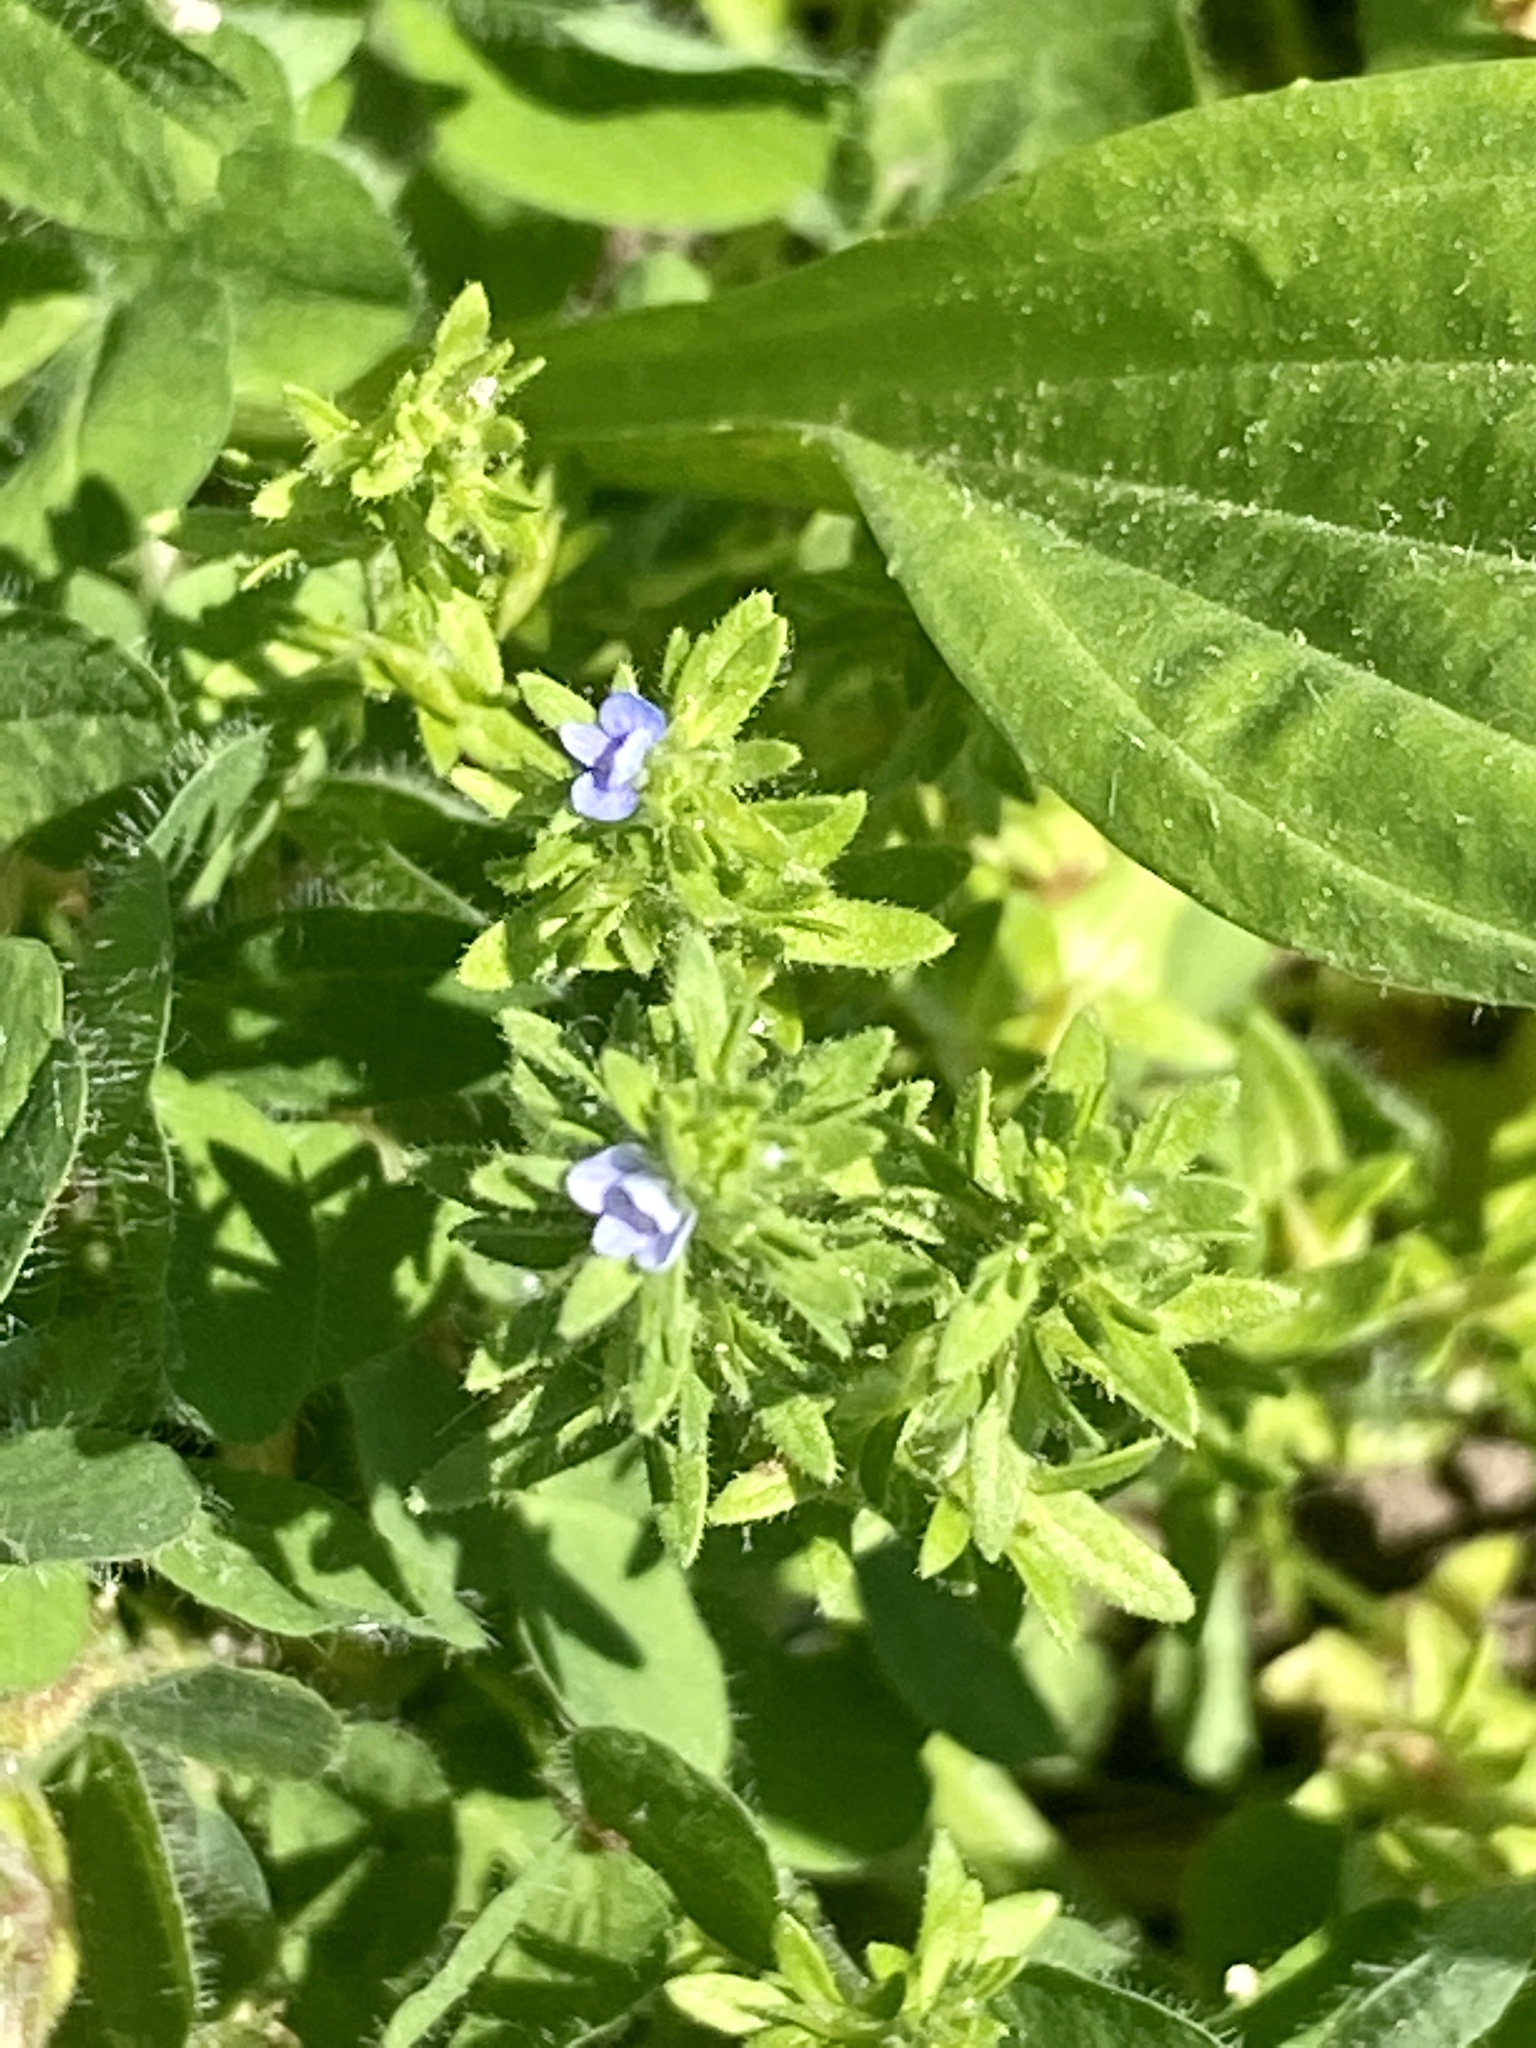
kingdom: Plantae
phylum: Tracheophyta
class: Magnoliopsida
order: Lamiales
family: Plantaginaceae
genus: Veronica
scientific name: Veronica arvensis
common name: Corn speedwell
